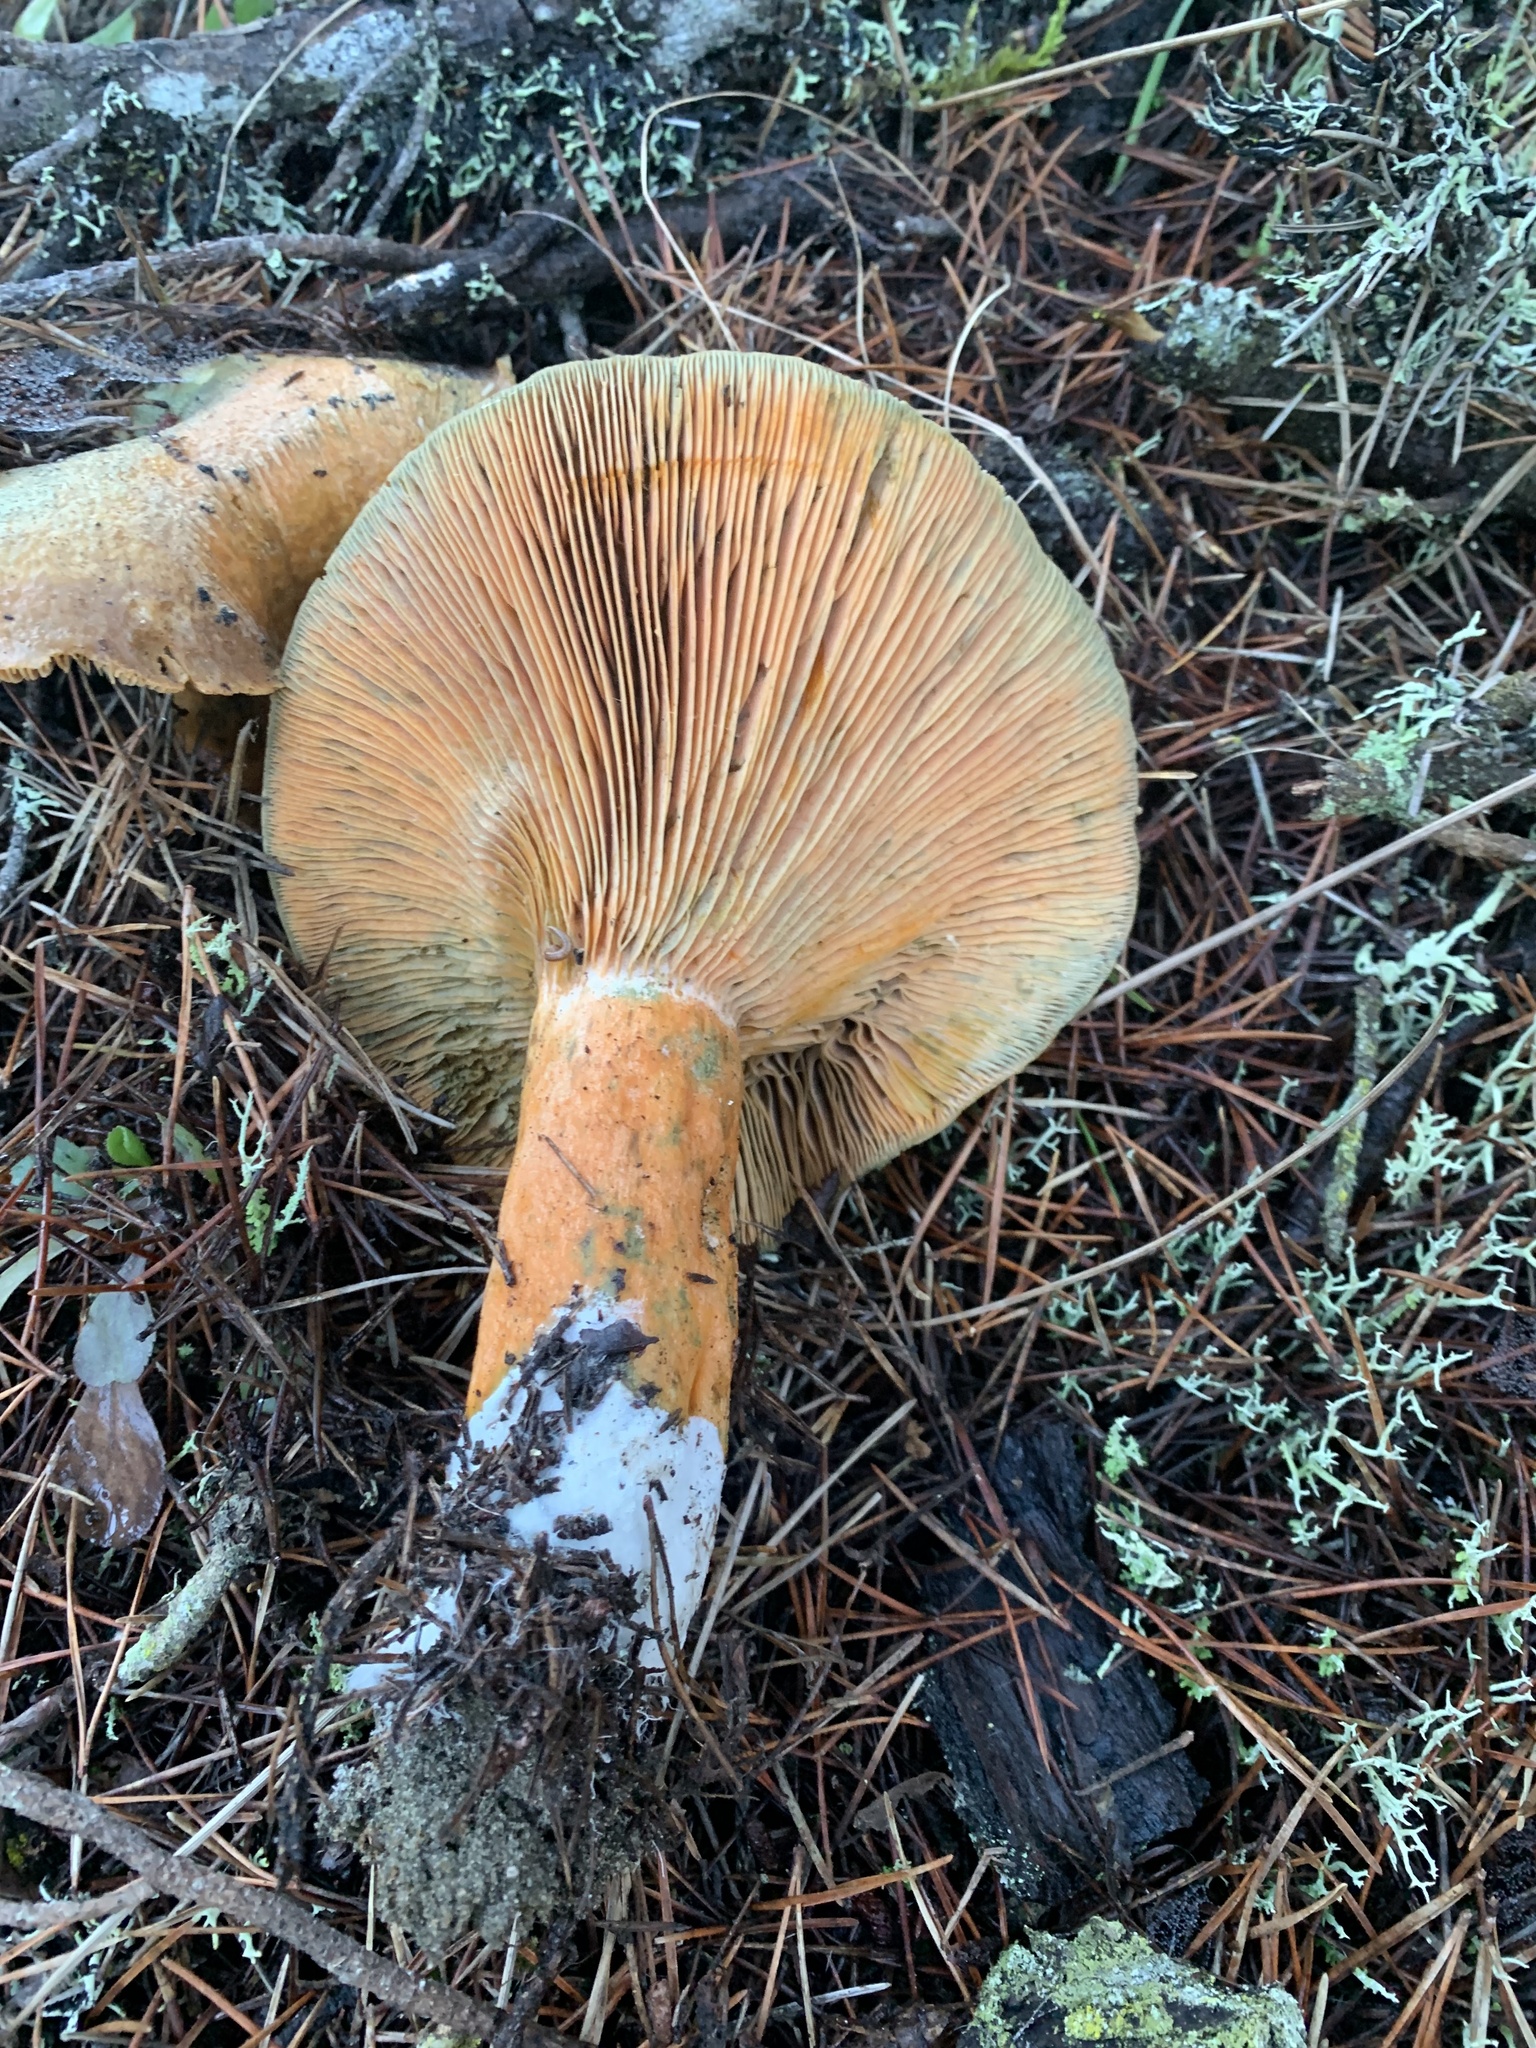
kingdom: Fungi
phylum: Basidiomycota
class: Agaricomycetes
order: Russulales
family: Russulaceae
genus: Lactarius
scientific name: Lactarius deliciosus
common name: Saffron milk-cap
